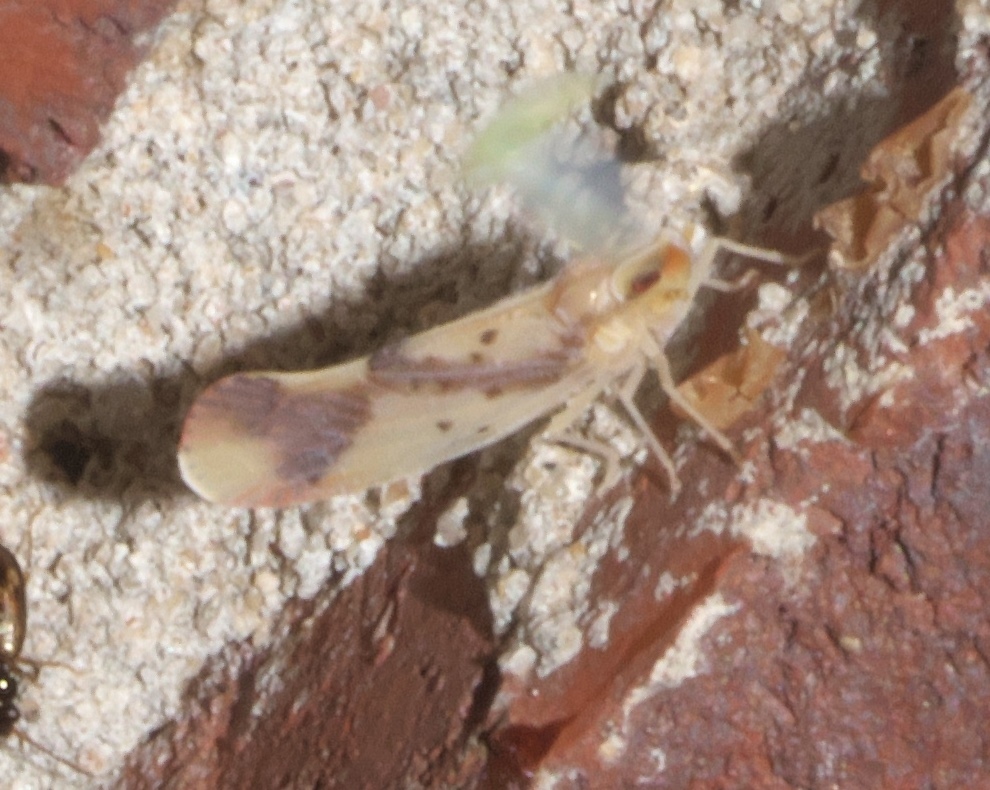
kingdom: Animalia
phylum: Arthropoda
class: Insecta
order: Hemiptera
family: Derbidae
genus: Otiocerus
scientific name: Otiocerus reaumurii
